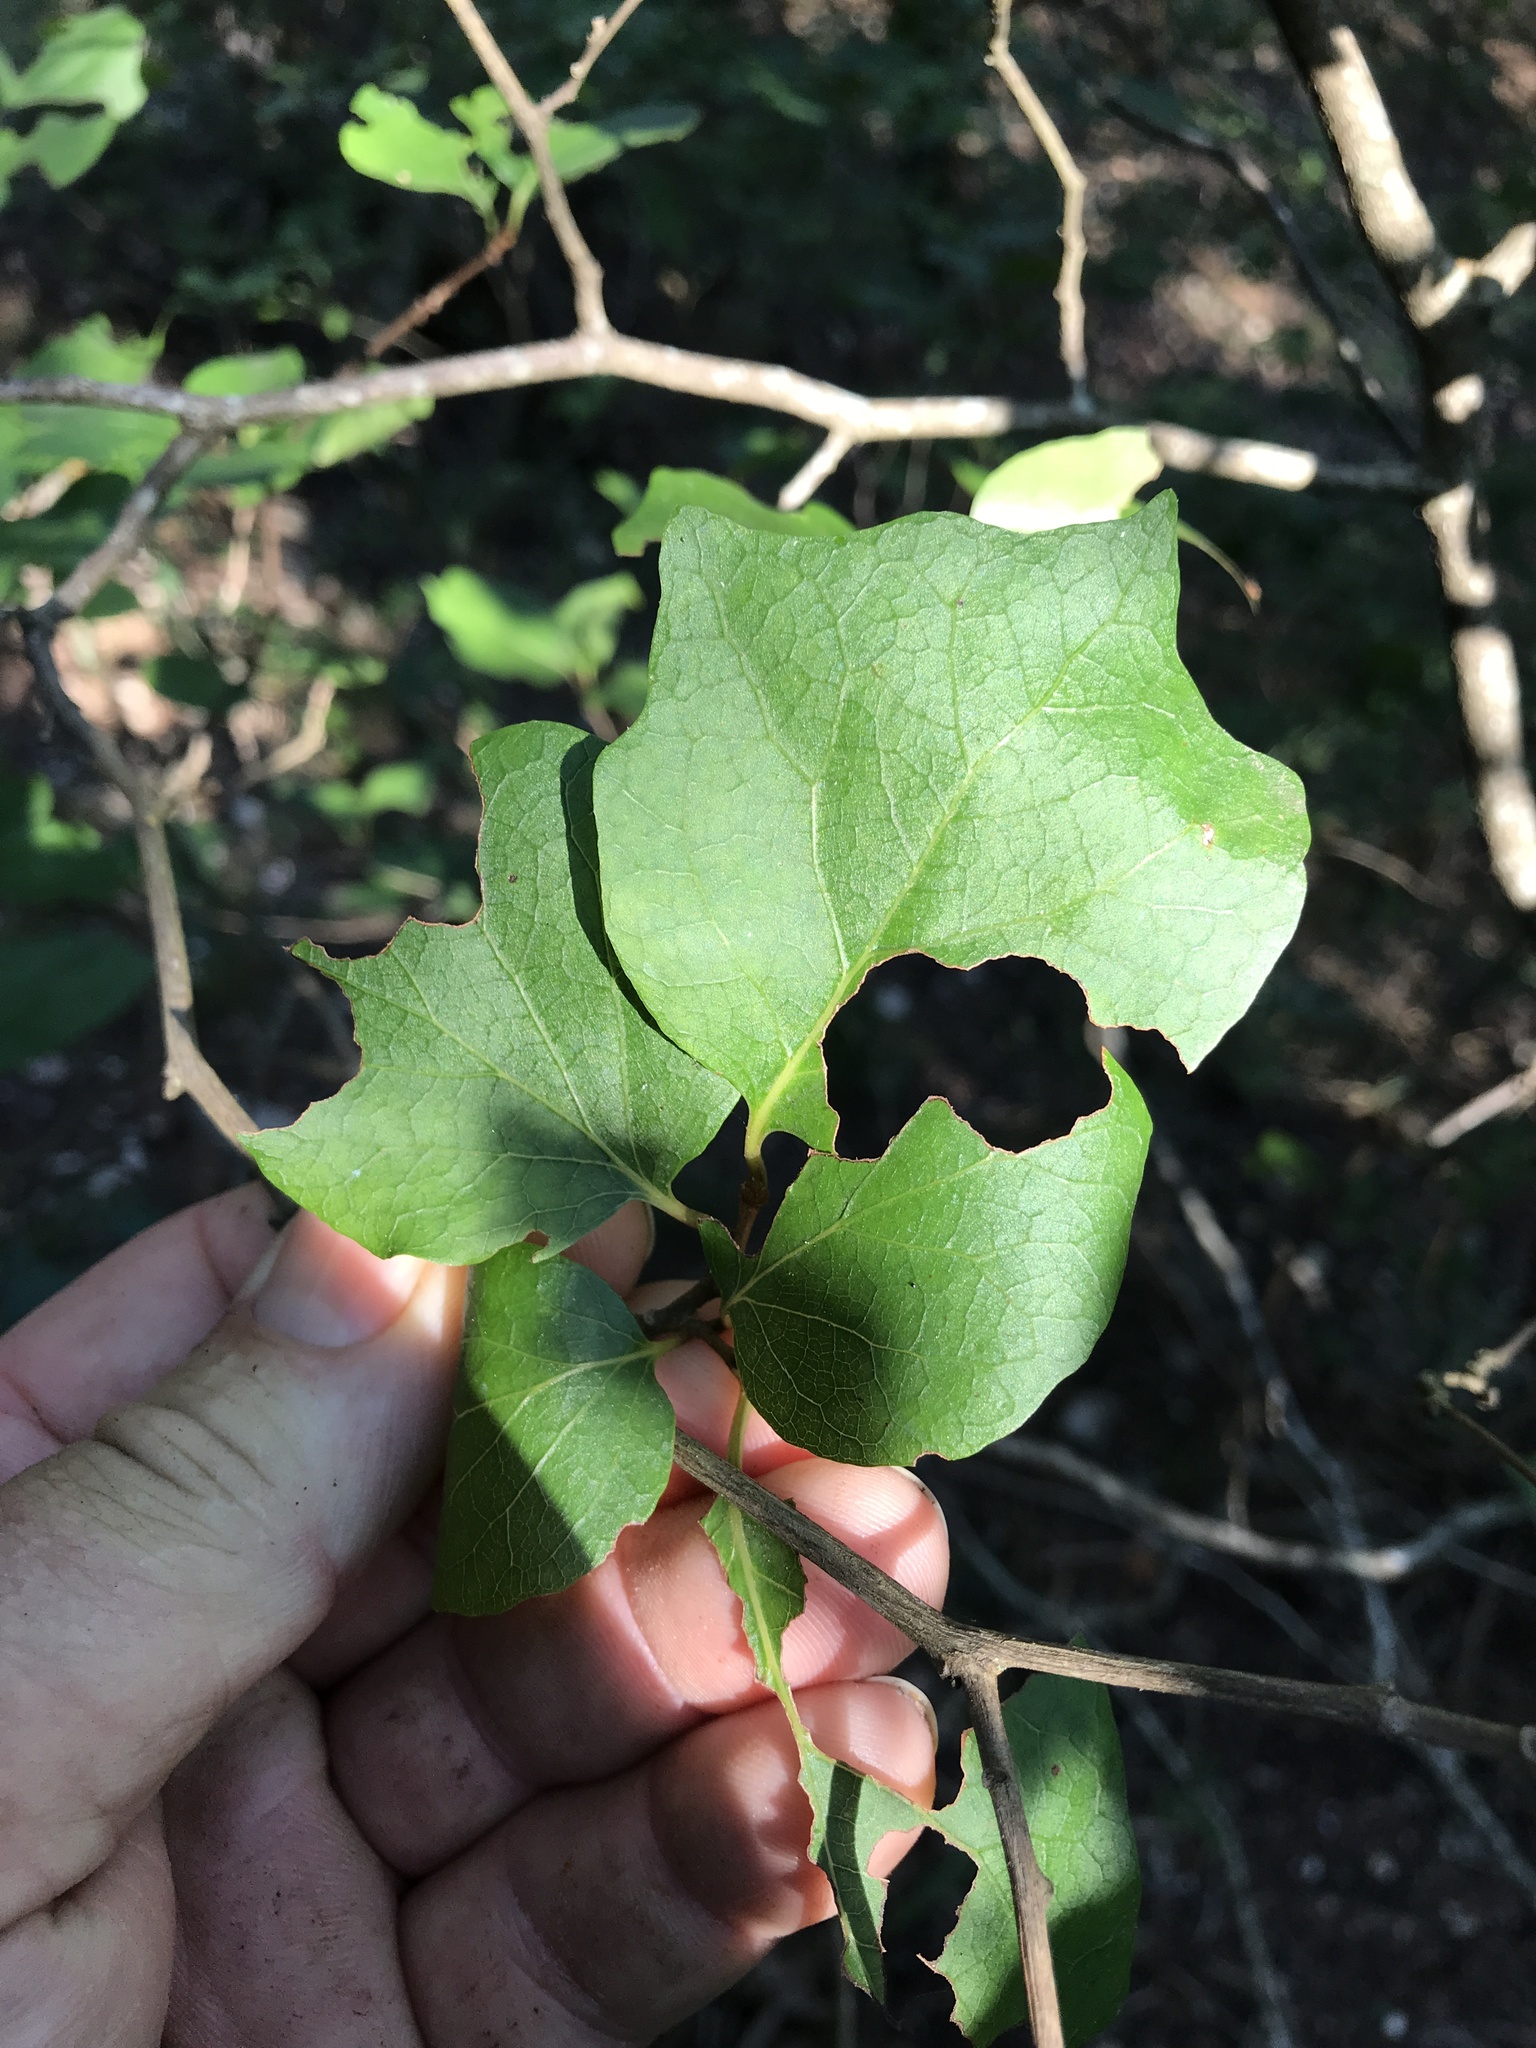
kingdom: Plantae
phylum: Tracheophyta
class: Magnoliopsida
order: Ericales
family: Styracaceae
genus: Styrax
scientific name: Styrax platanifolius
